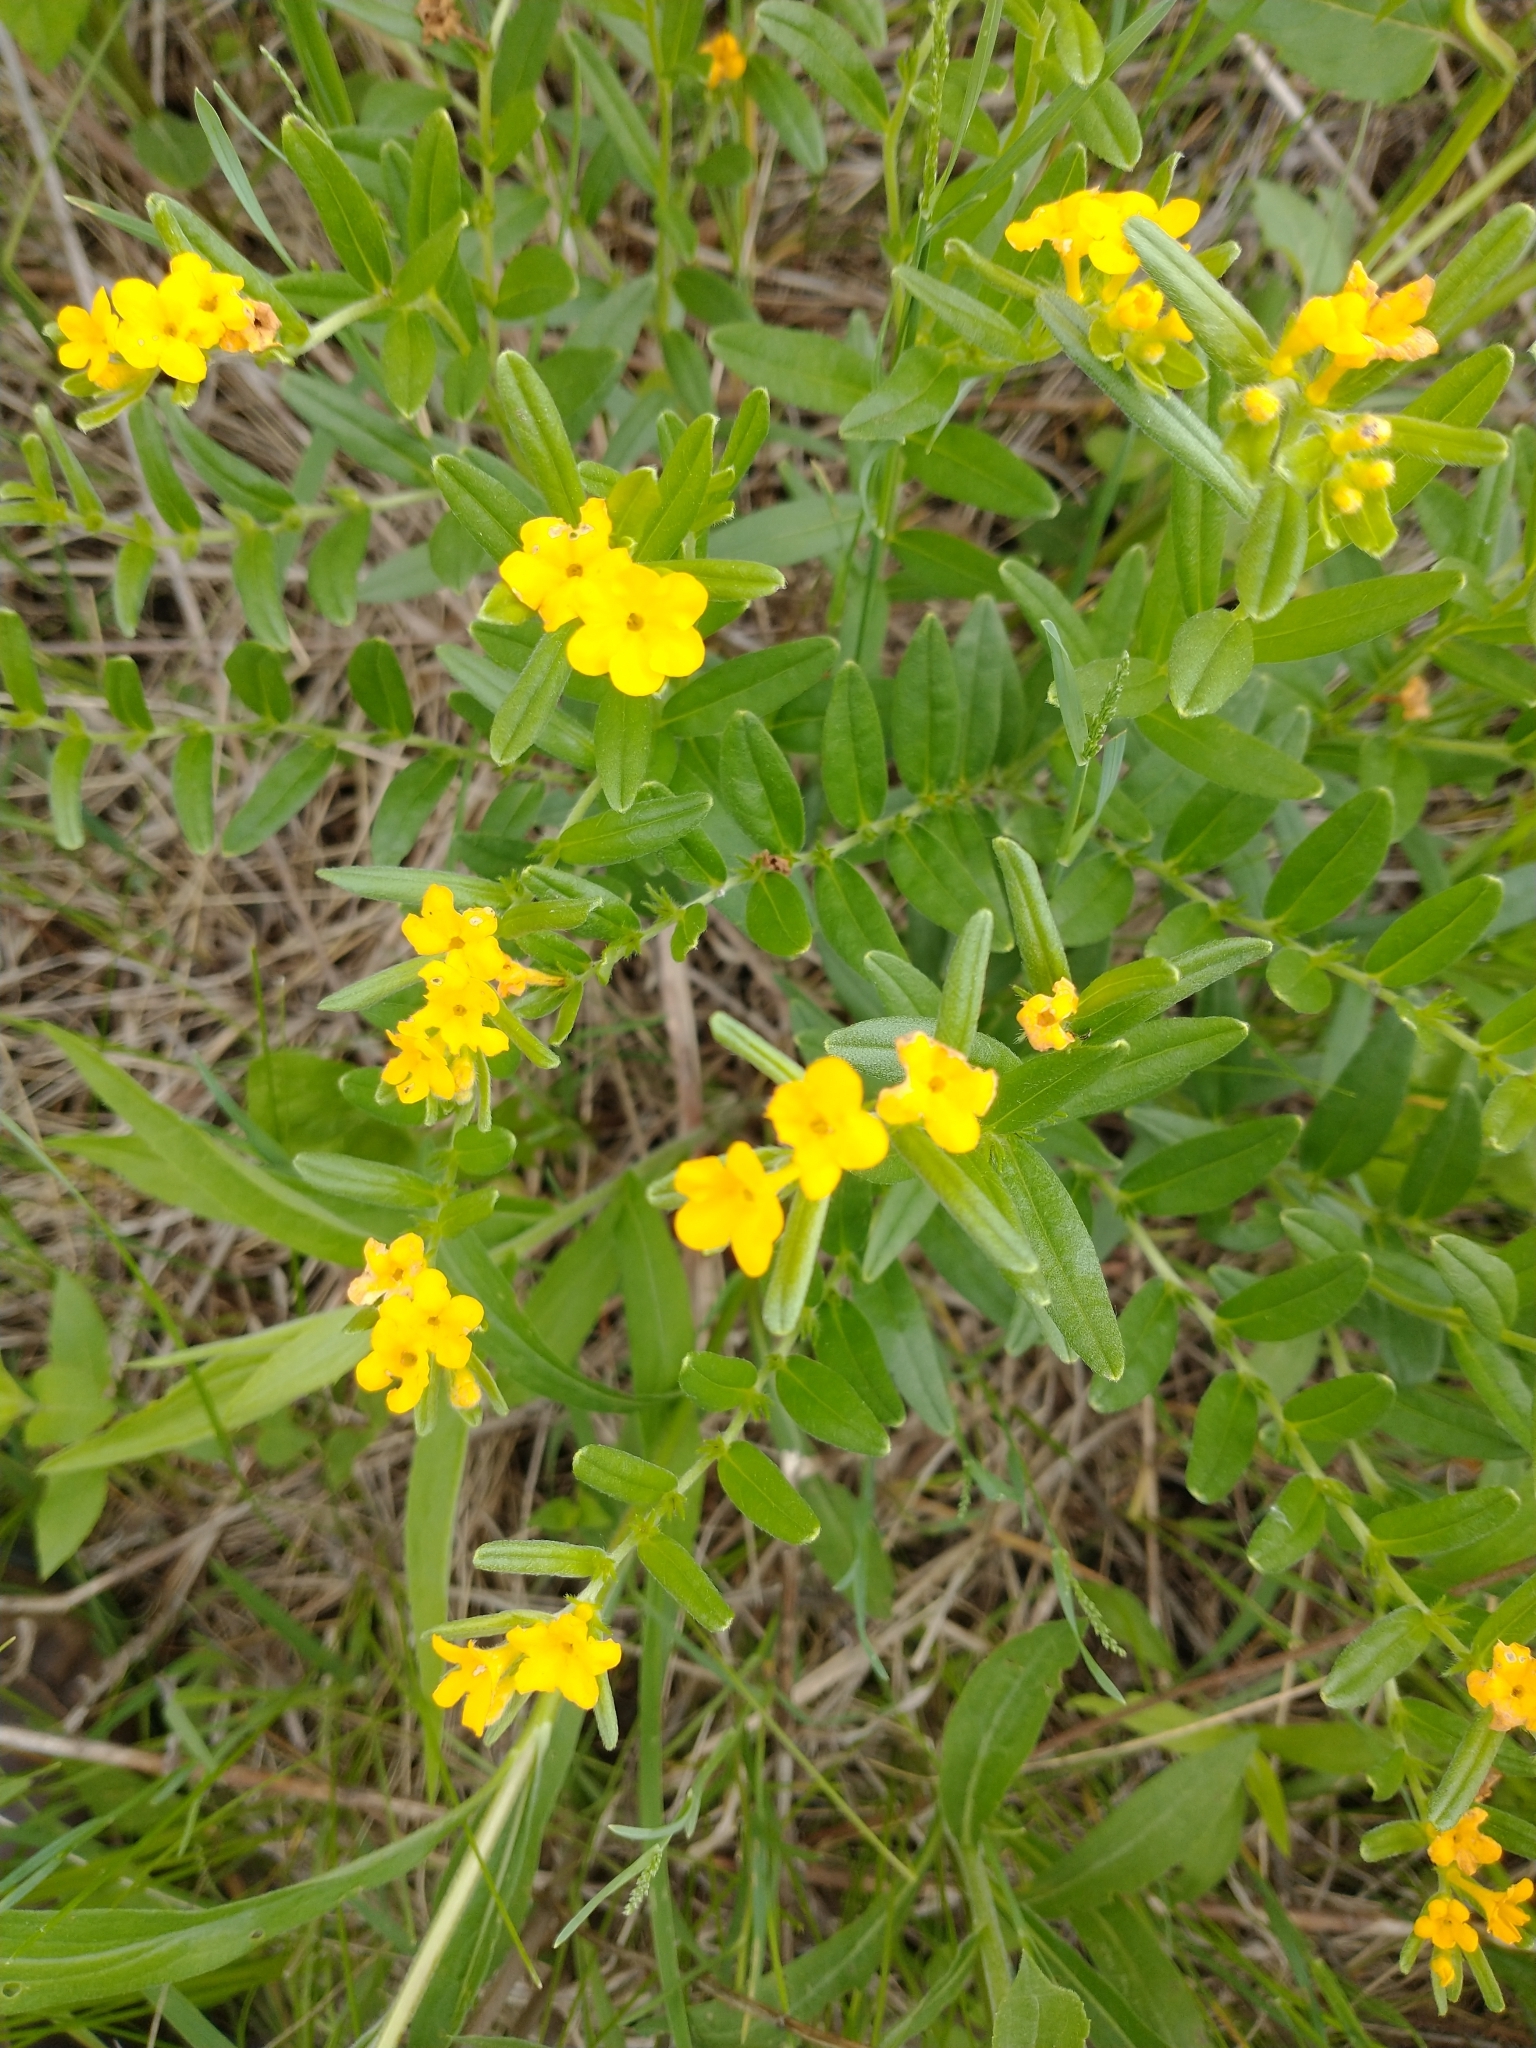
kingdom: Plantae
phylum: Tracheophyta
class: Magnoliopsida
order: Boraginales
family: Boraginaceae
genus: Lithospermum
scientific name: Lithospermum canescens
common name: Hoary puccoon
